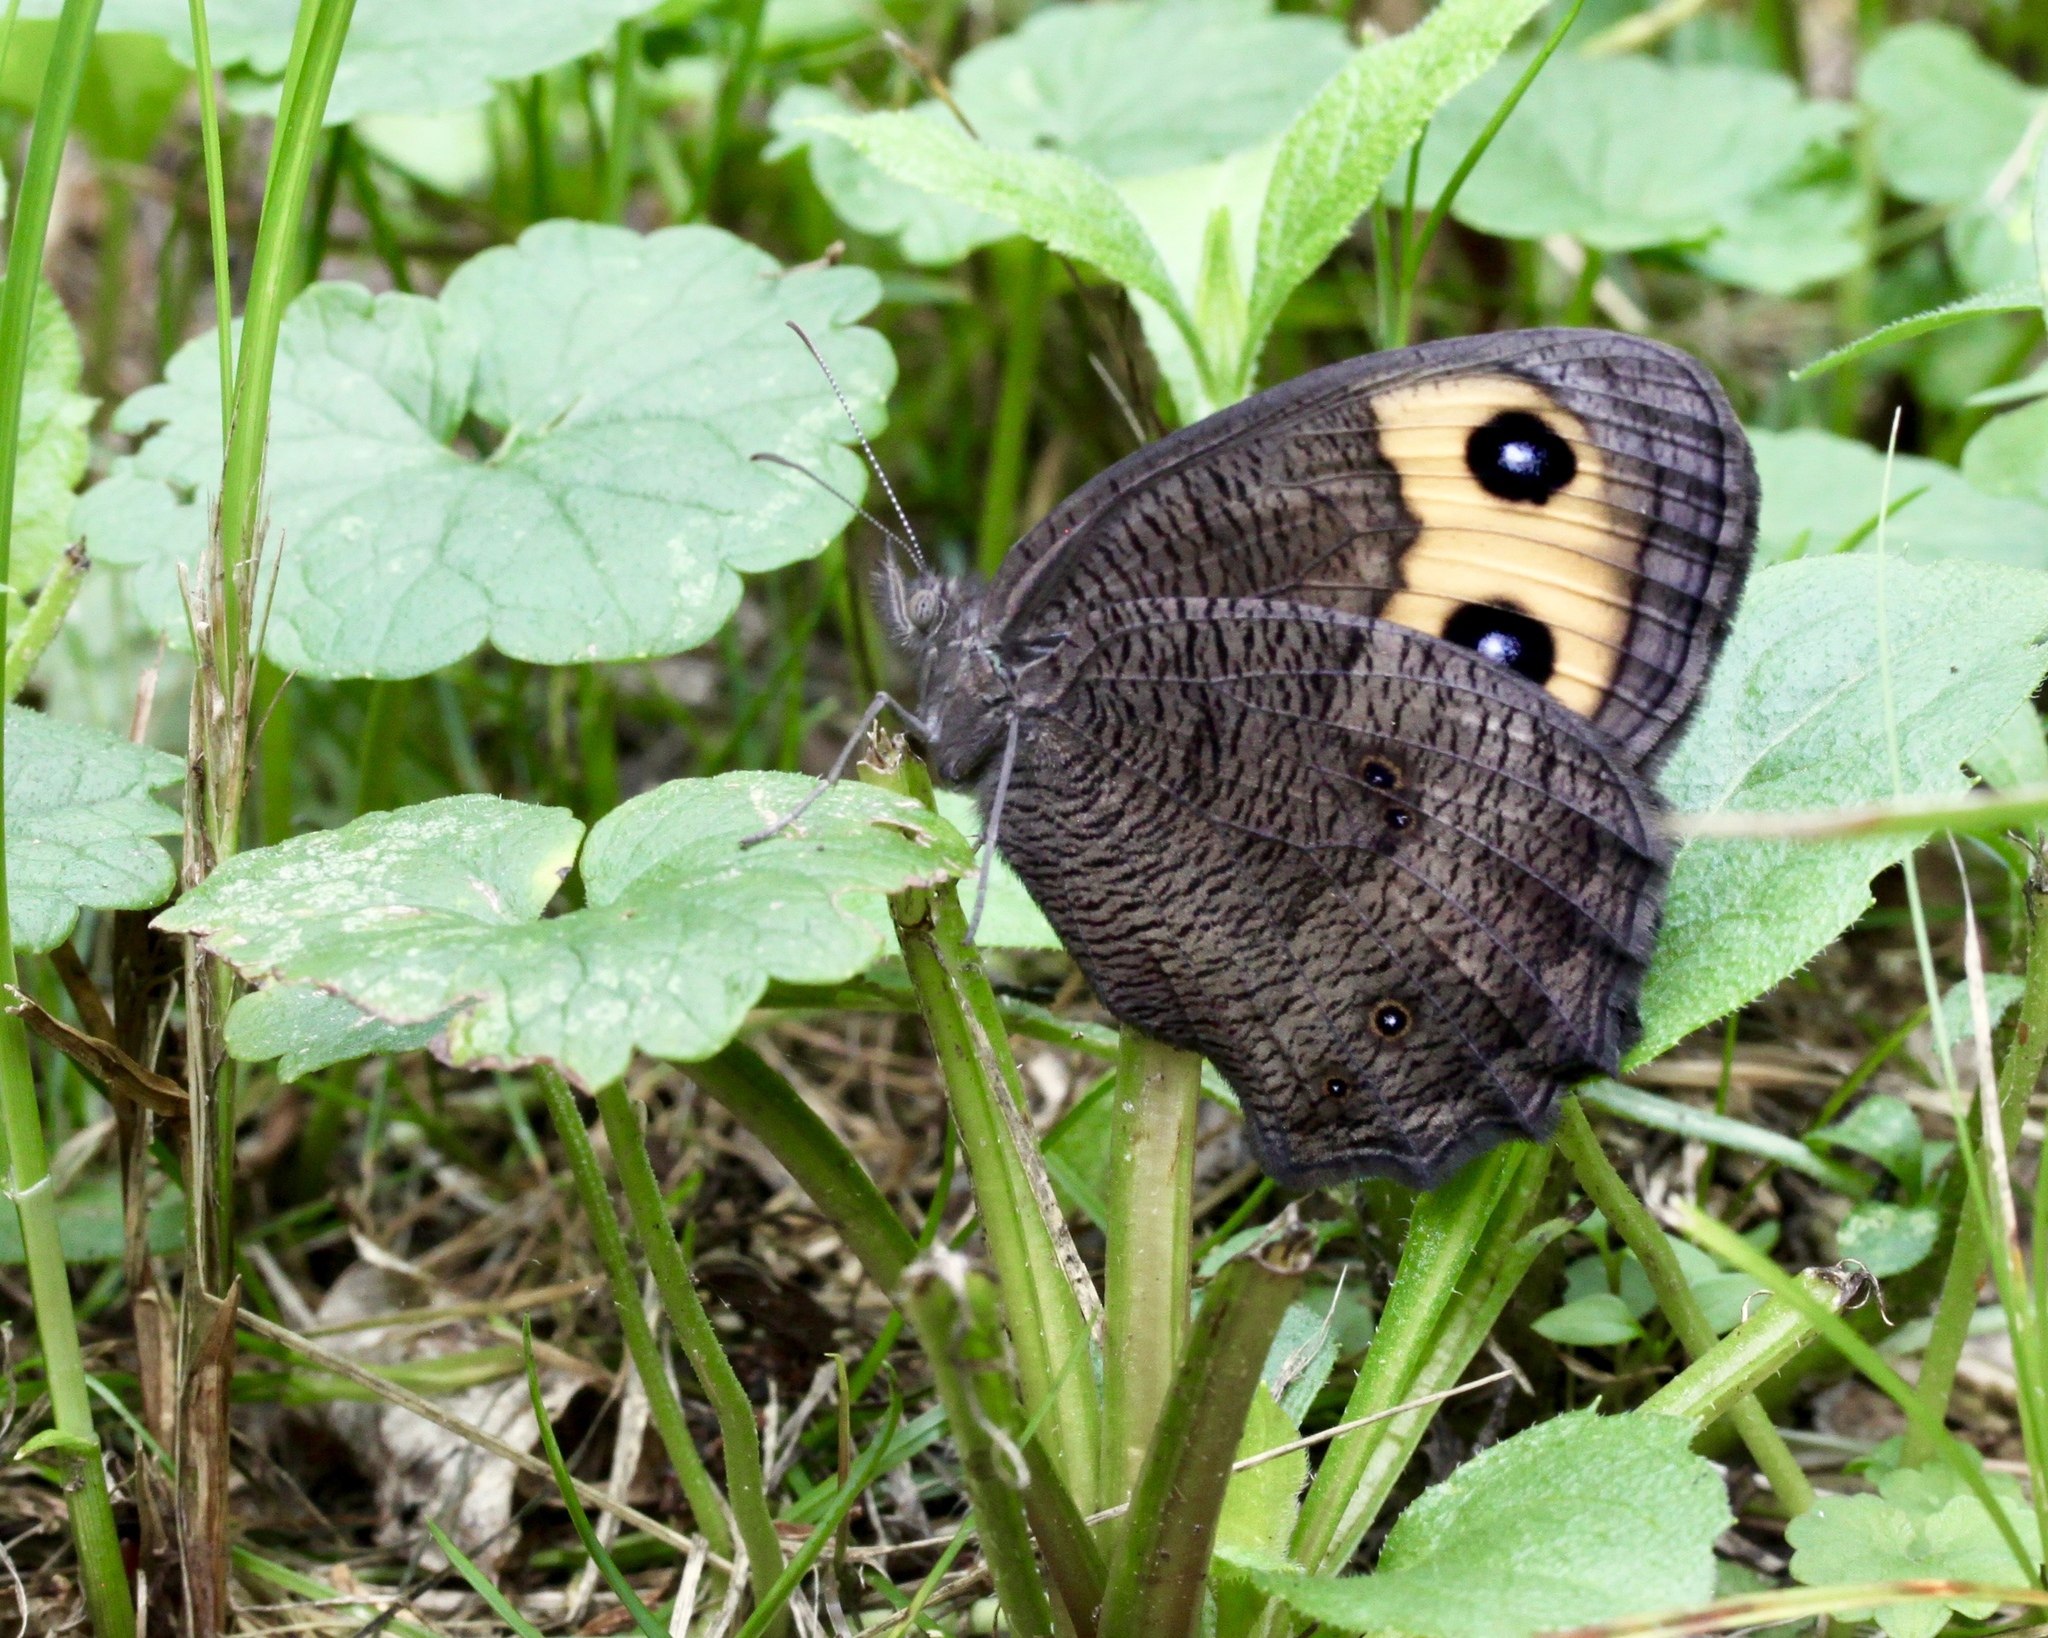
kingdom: Animalia
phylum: Arthropoda
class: Insecta
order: Lepidoptera
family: Nymphalidae
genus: Cercyonis
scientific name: Cercyonis pegala
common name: Common wood-nymph
